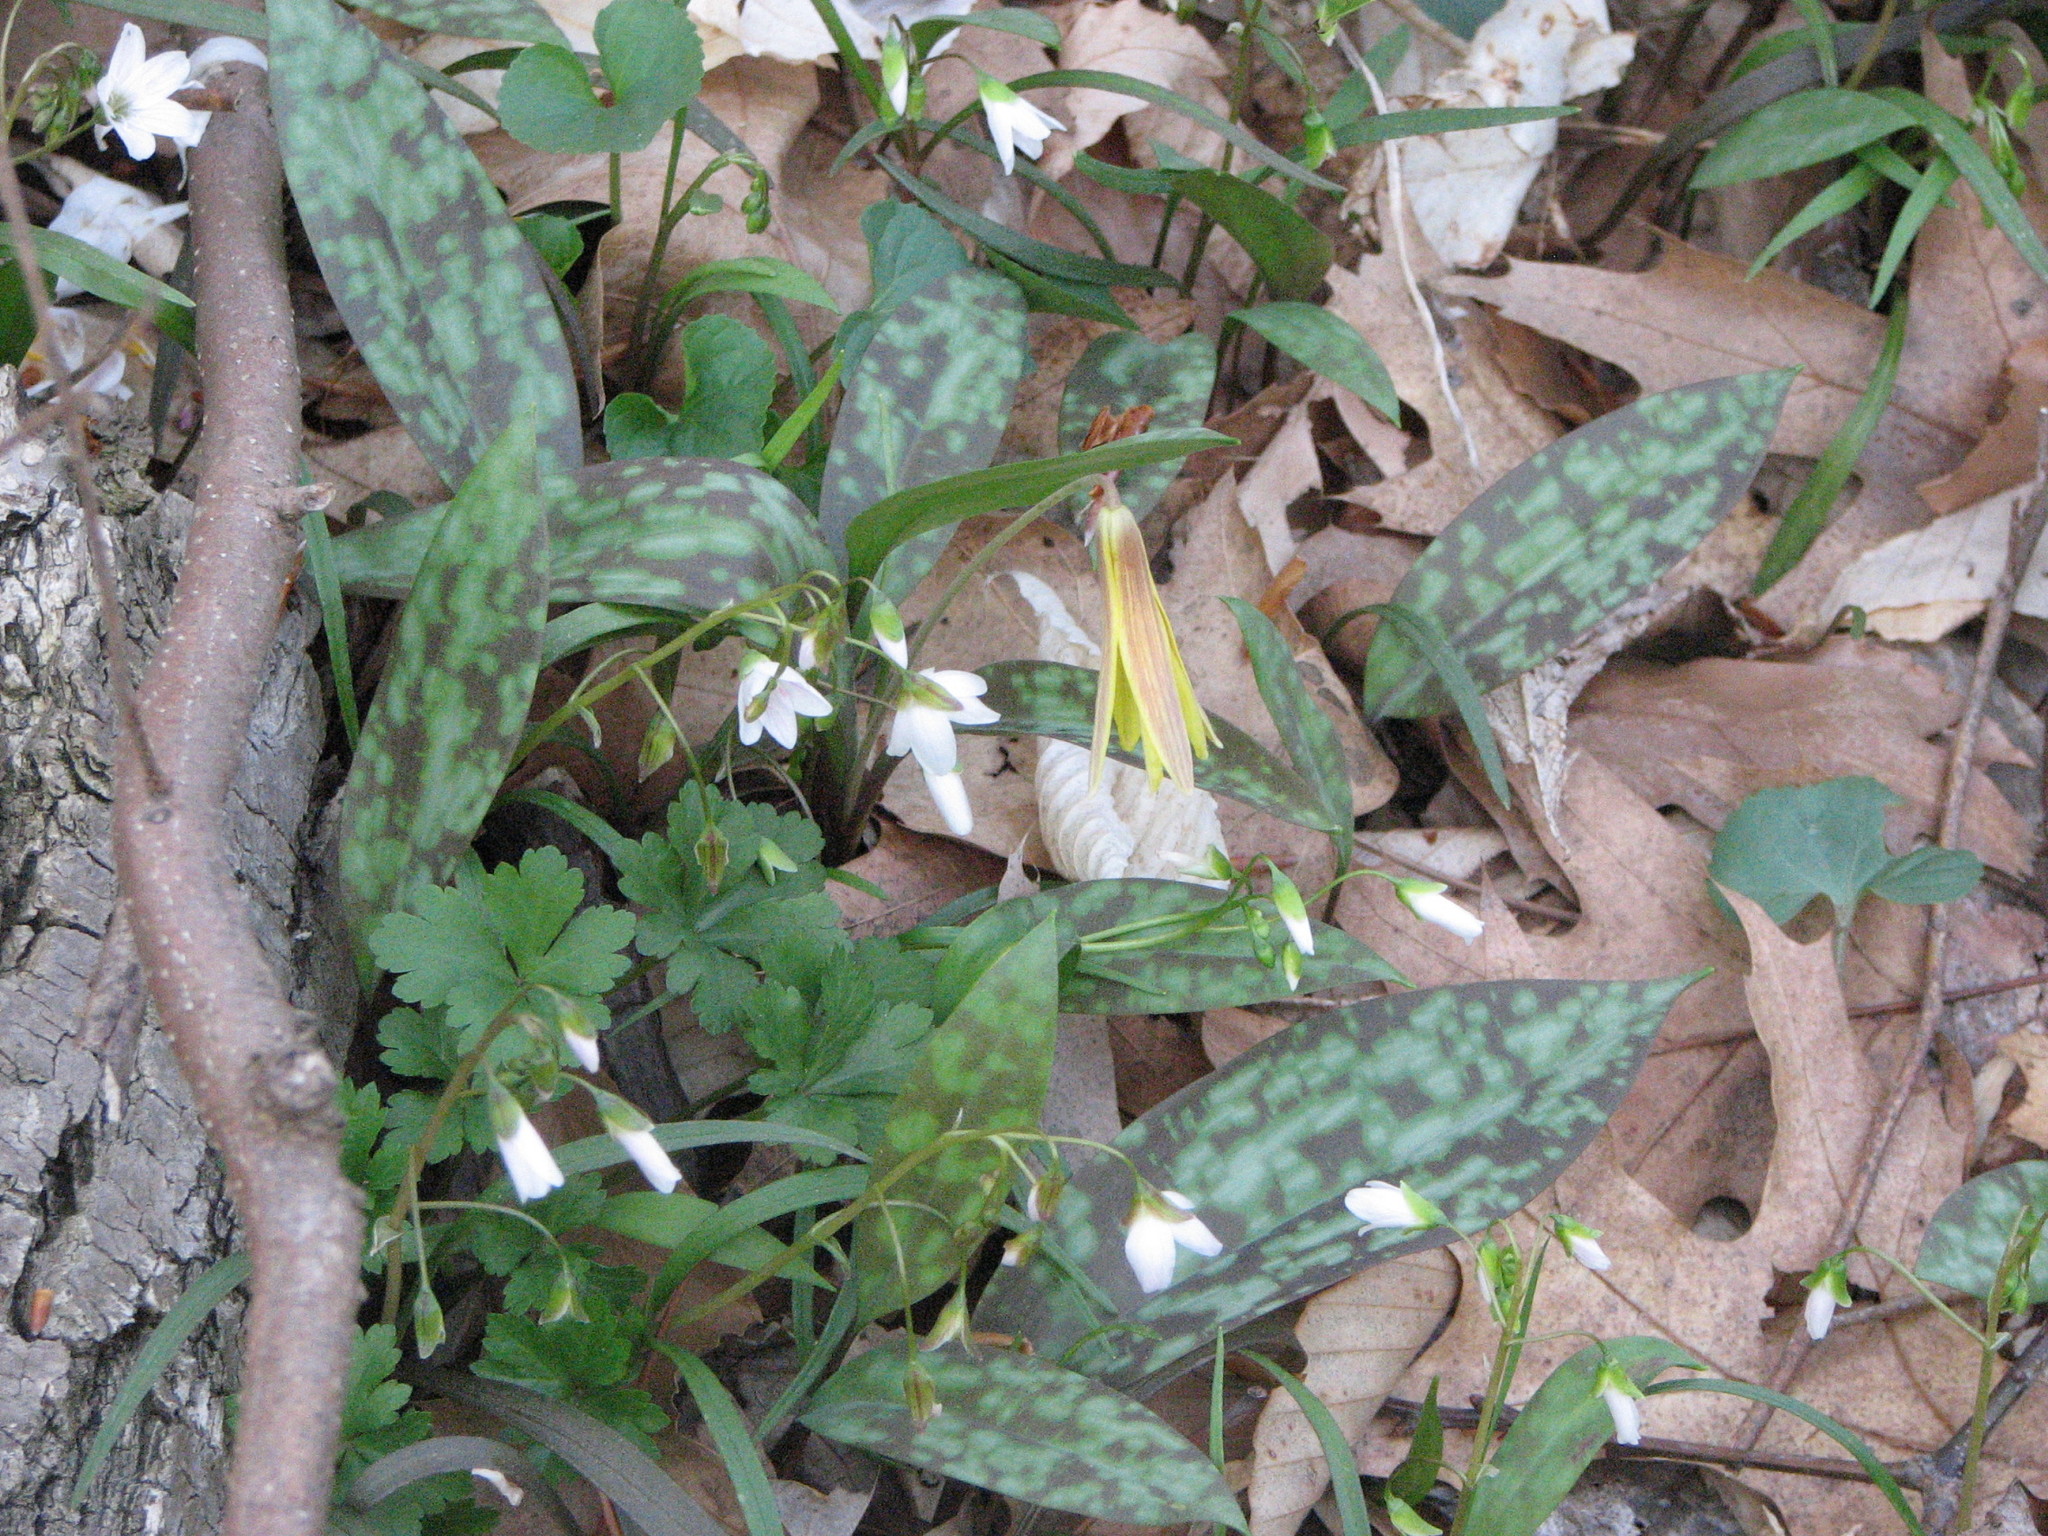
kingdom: Plantae
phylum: Tracheophyta
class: Magnoliopsida
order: Caryophyllales
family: Montiaceae
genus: Claytonia
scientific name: Claytonia virginica
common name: Virginia springbeauty
